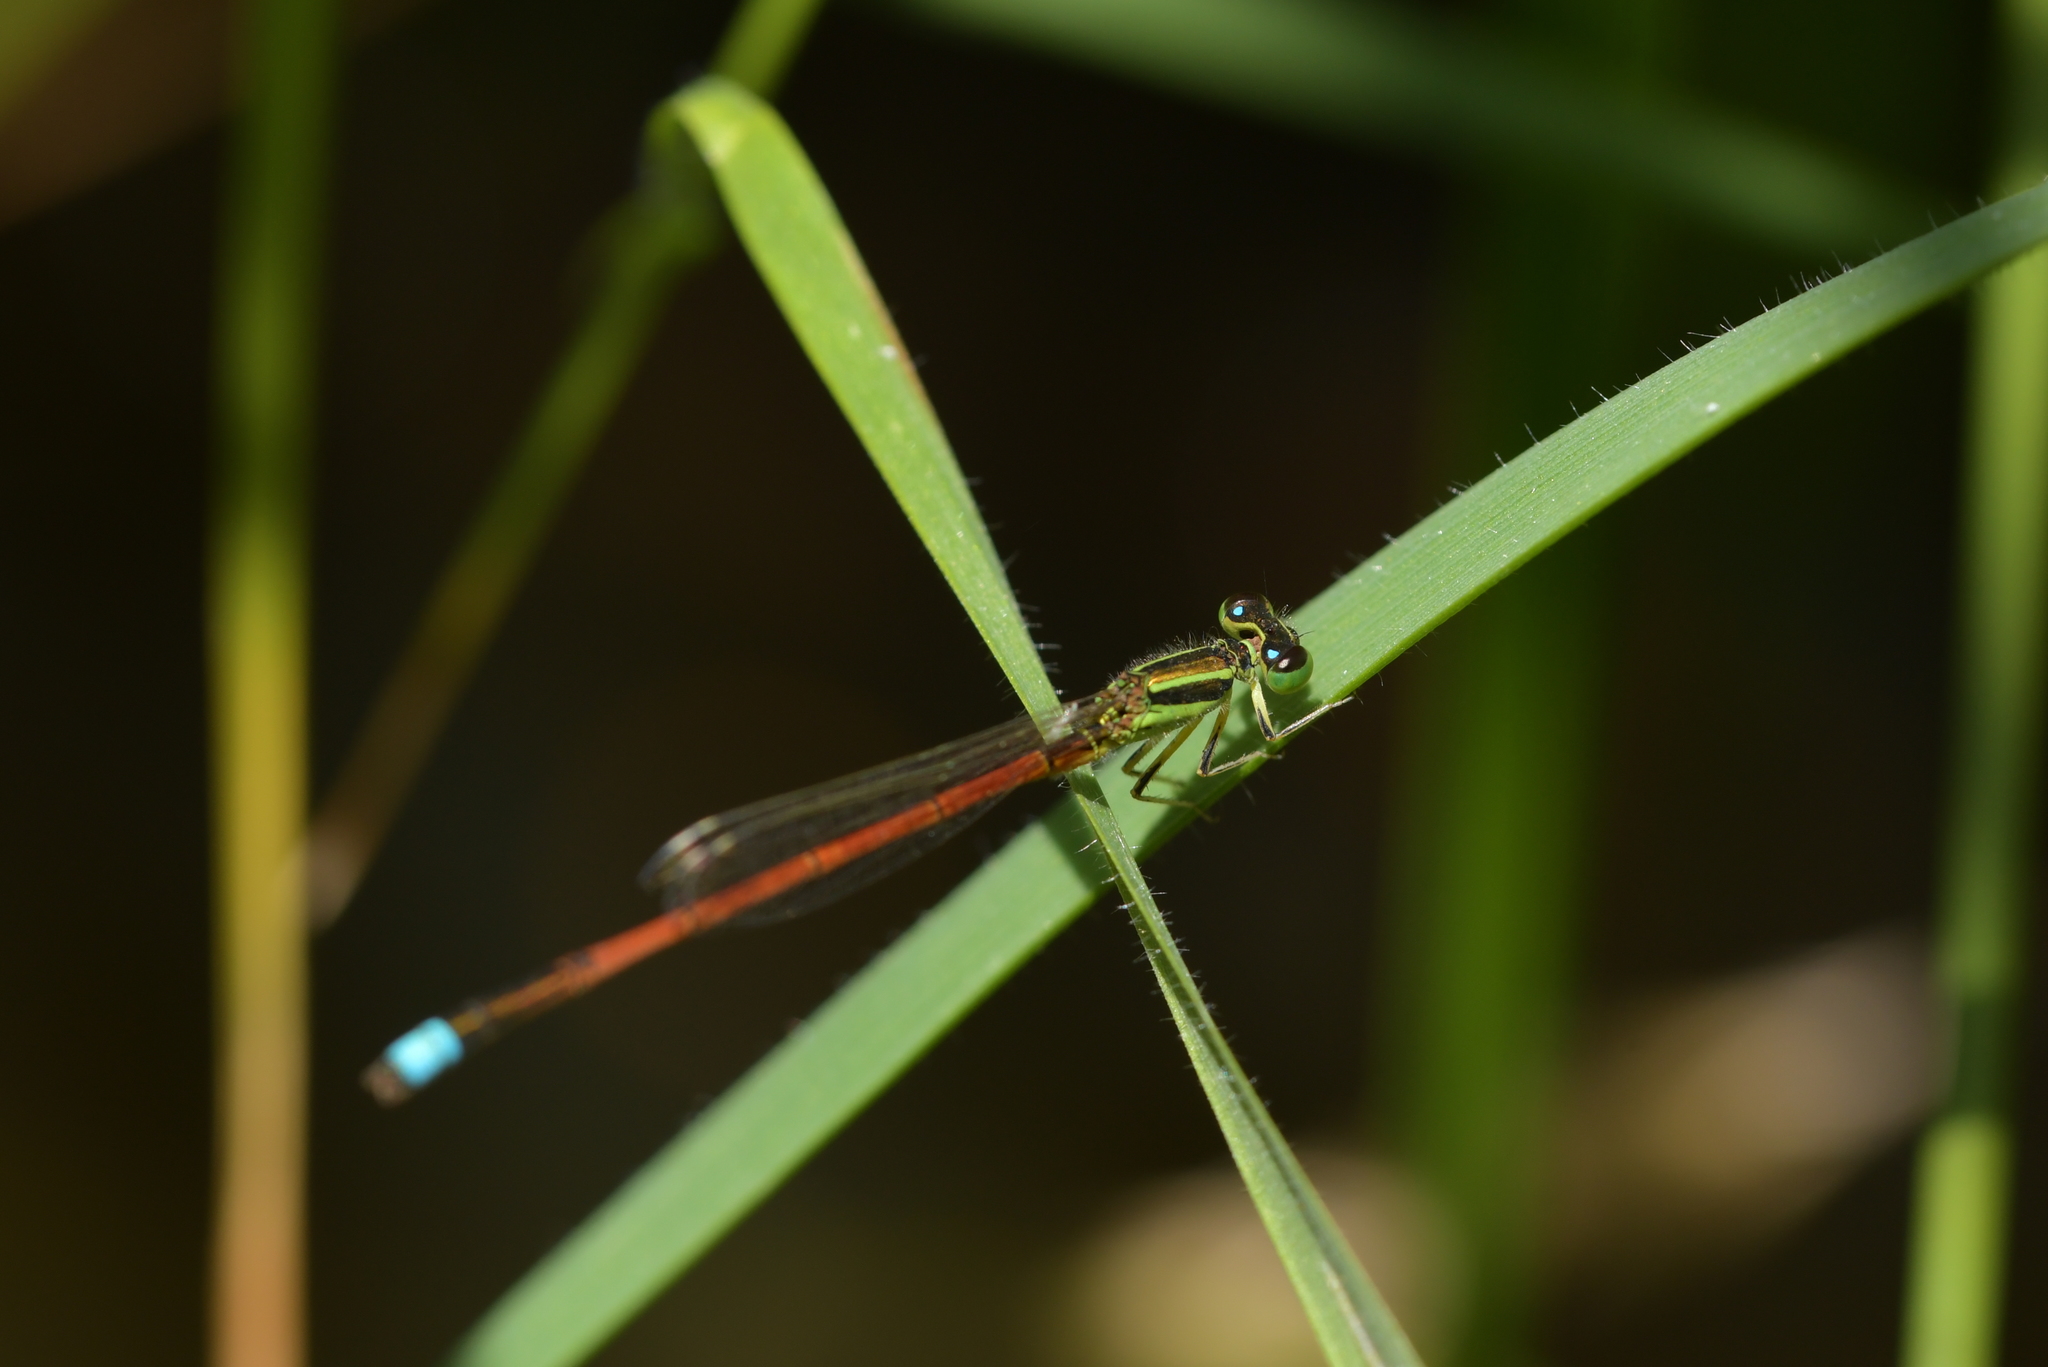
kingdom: Animalia
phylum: Arthropoda
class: Insecta
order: Odonata
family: Coenagrionidae
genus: Ischnura
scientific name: Ischnura aurora
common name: Gossamer damselfly
